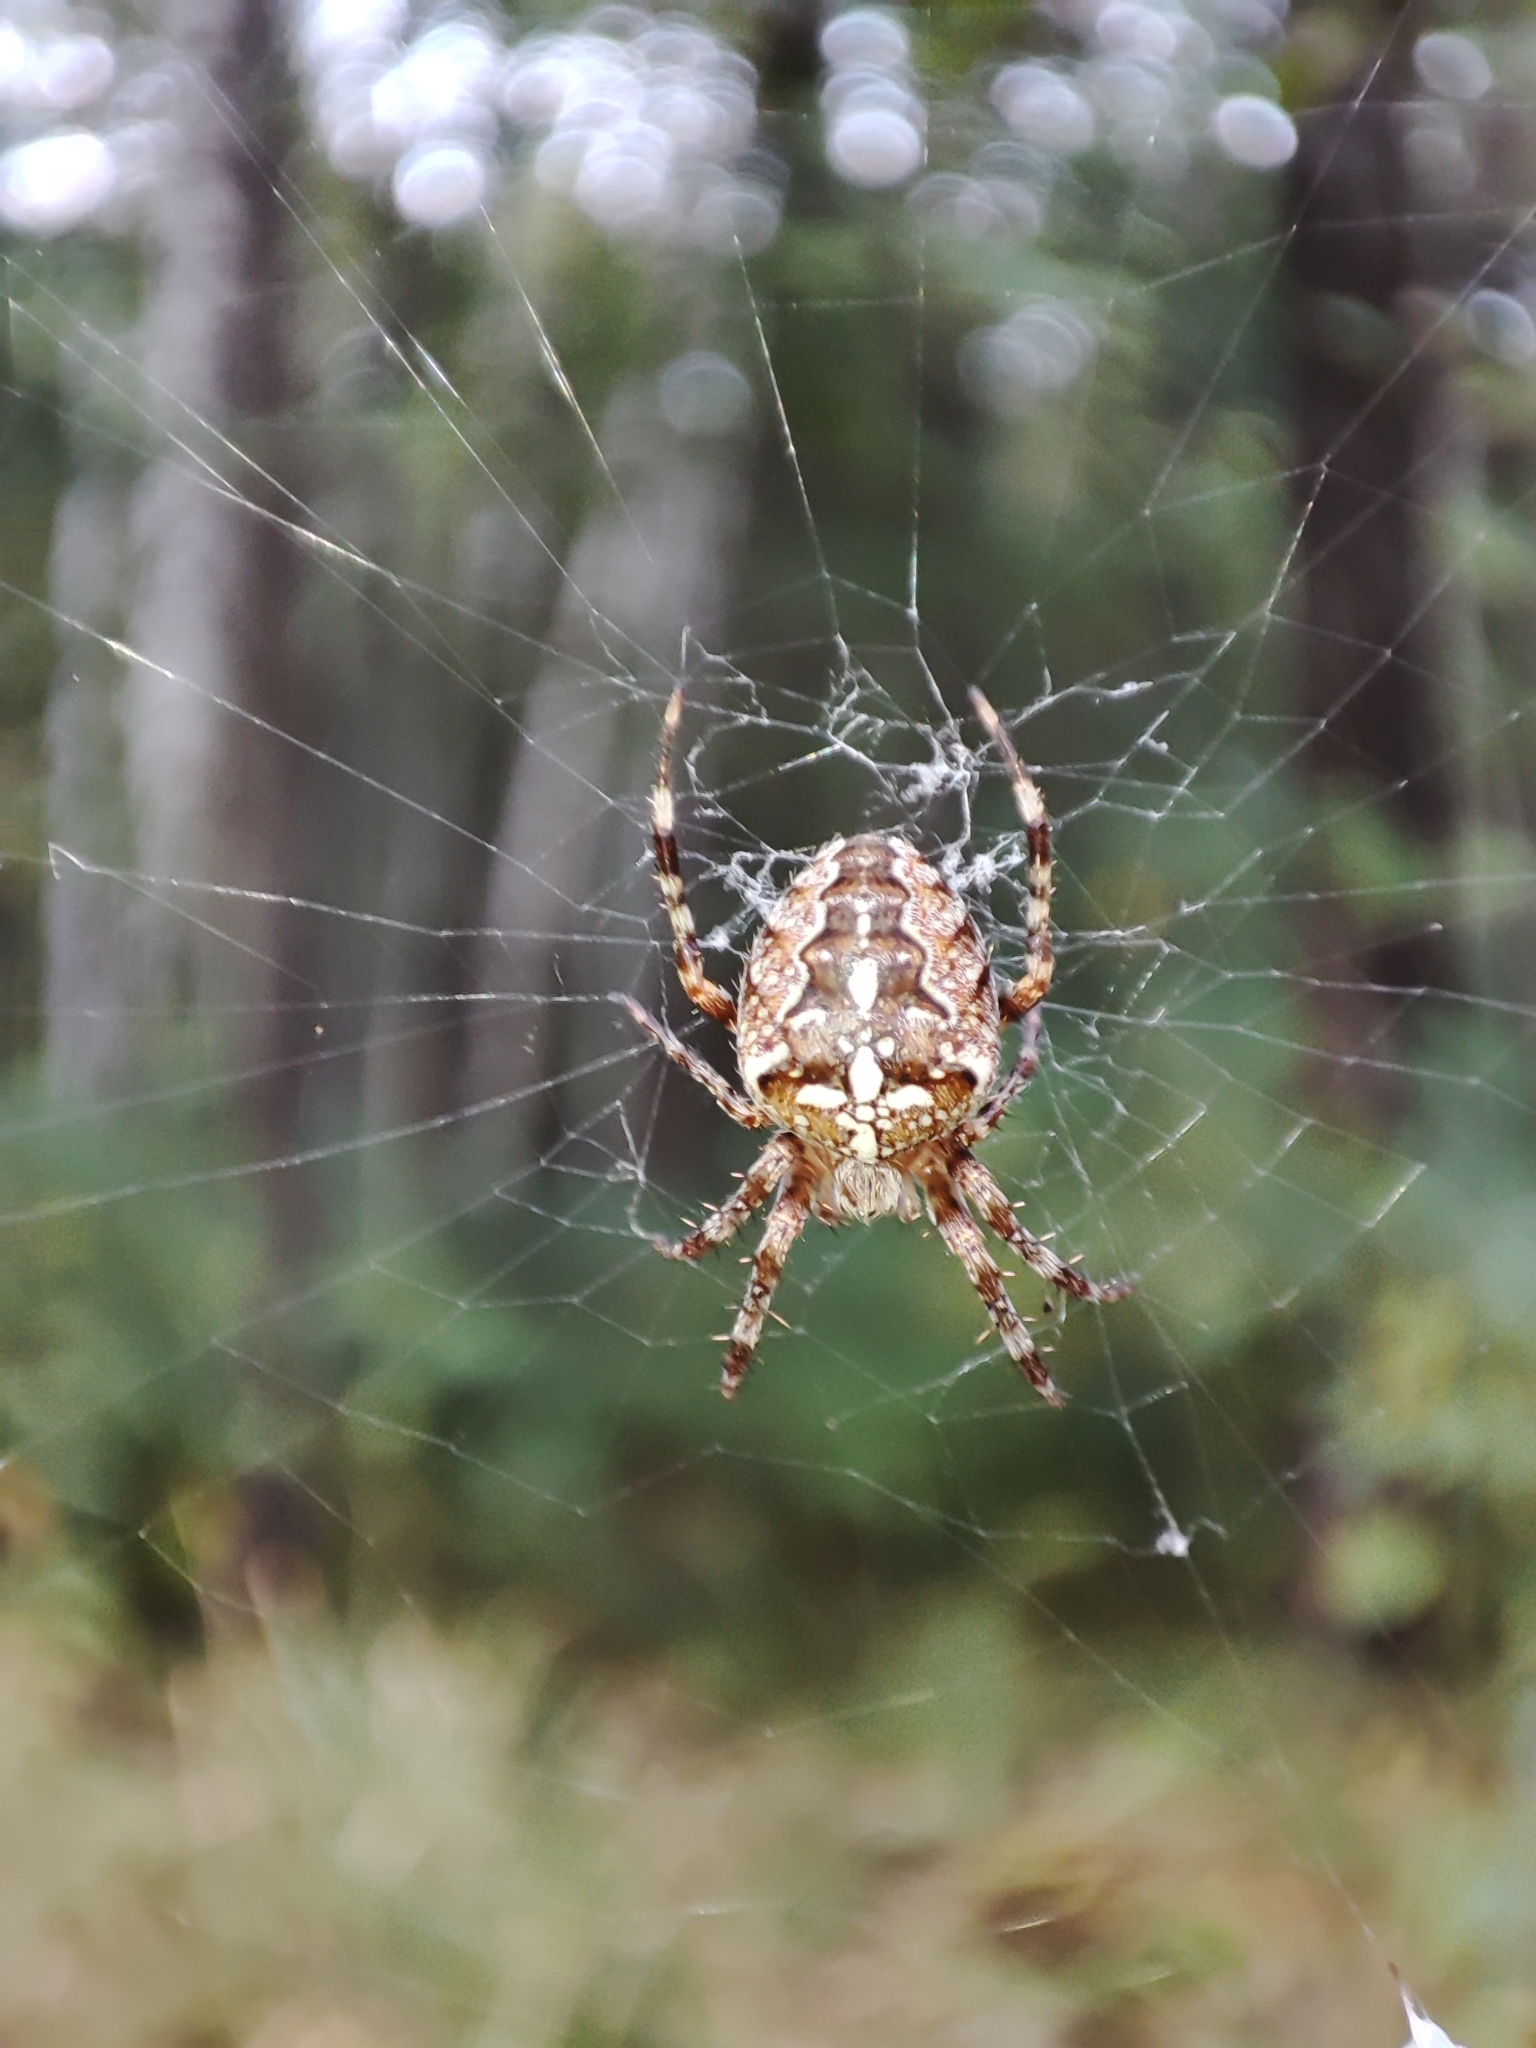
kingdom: Animalia
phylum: Arthropoda
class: Arachnida
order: Araneae
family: Araneidae
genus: Araneus
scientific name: Araneus diadematus
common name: Cross orbweaver
